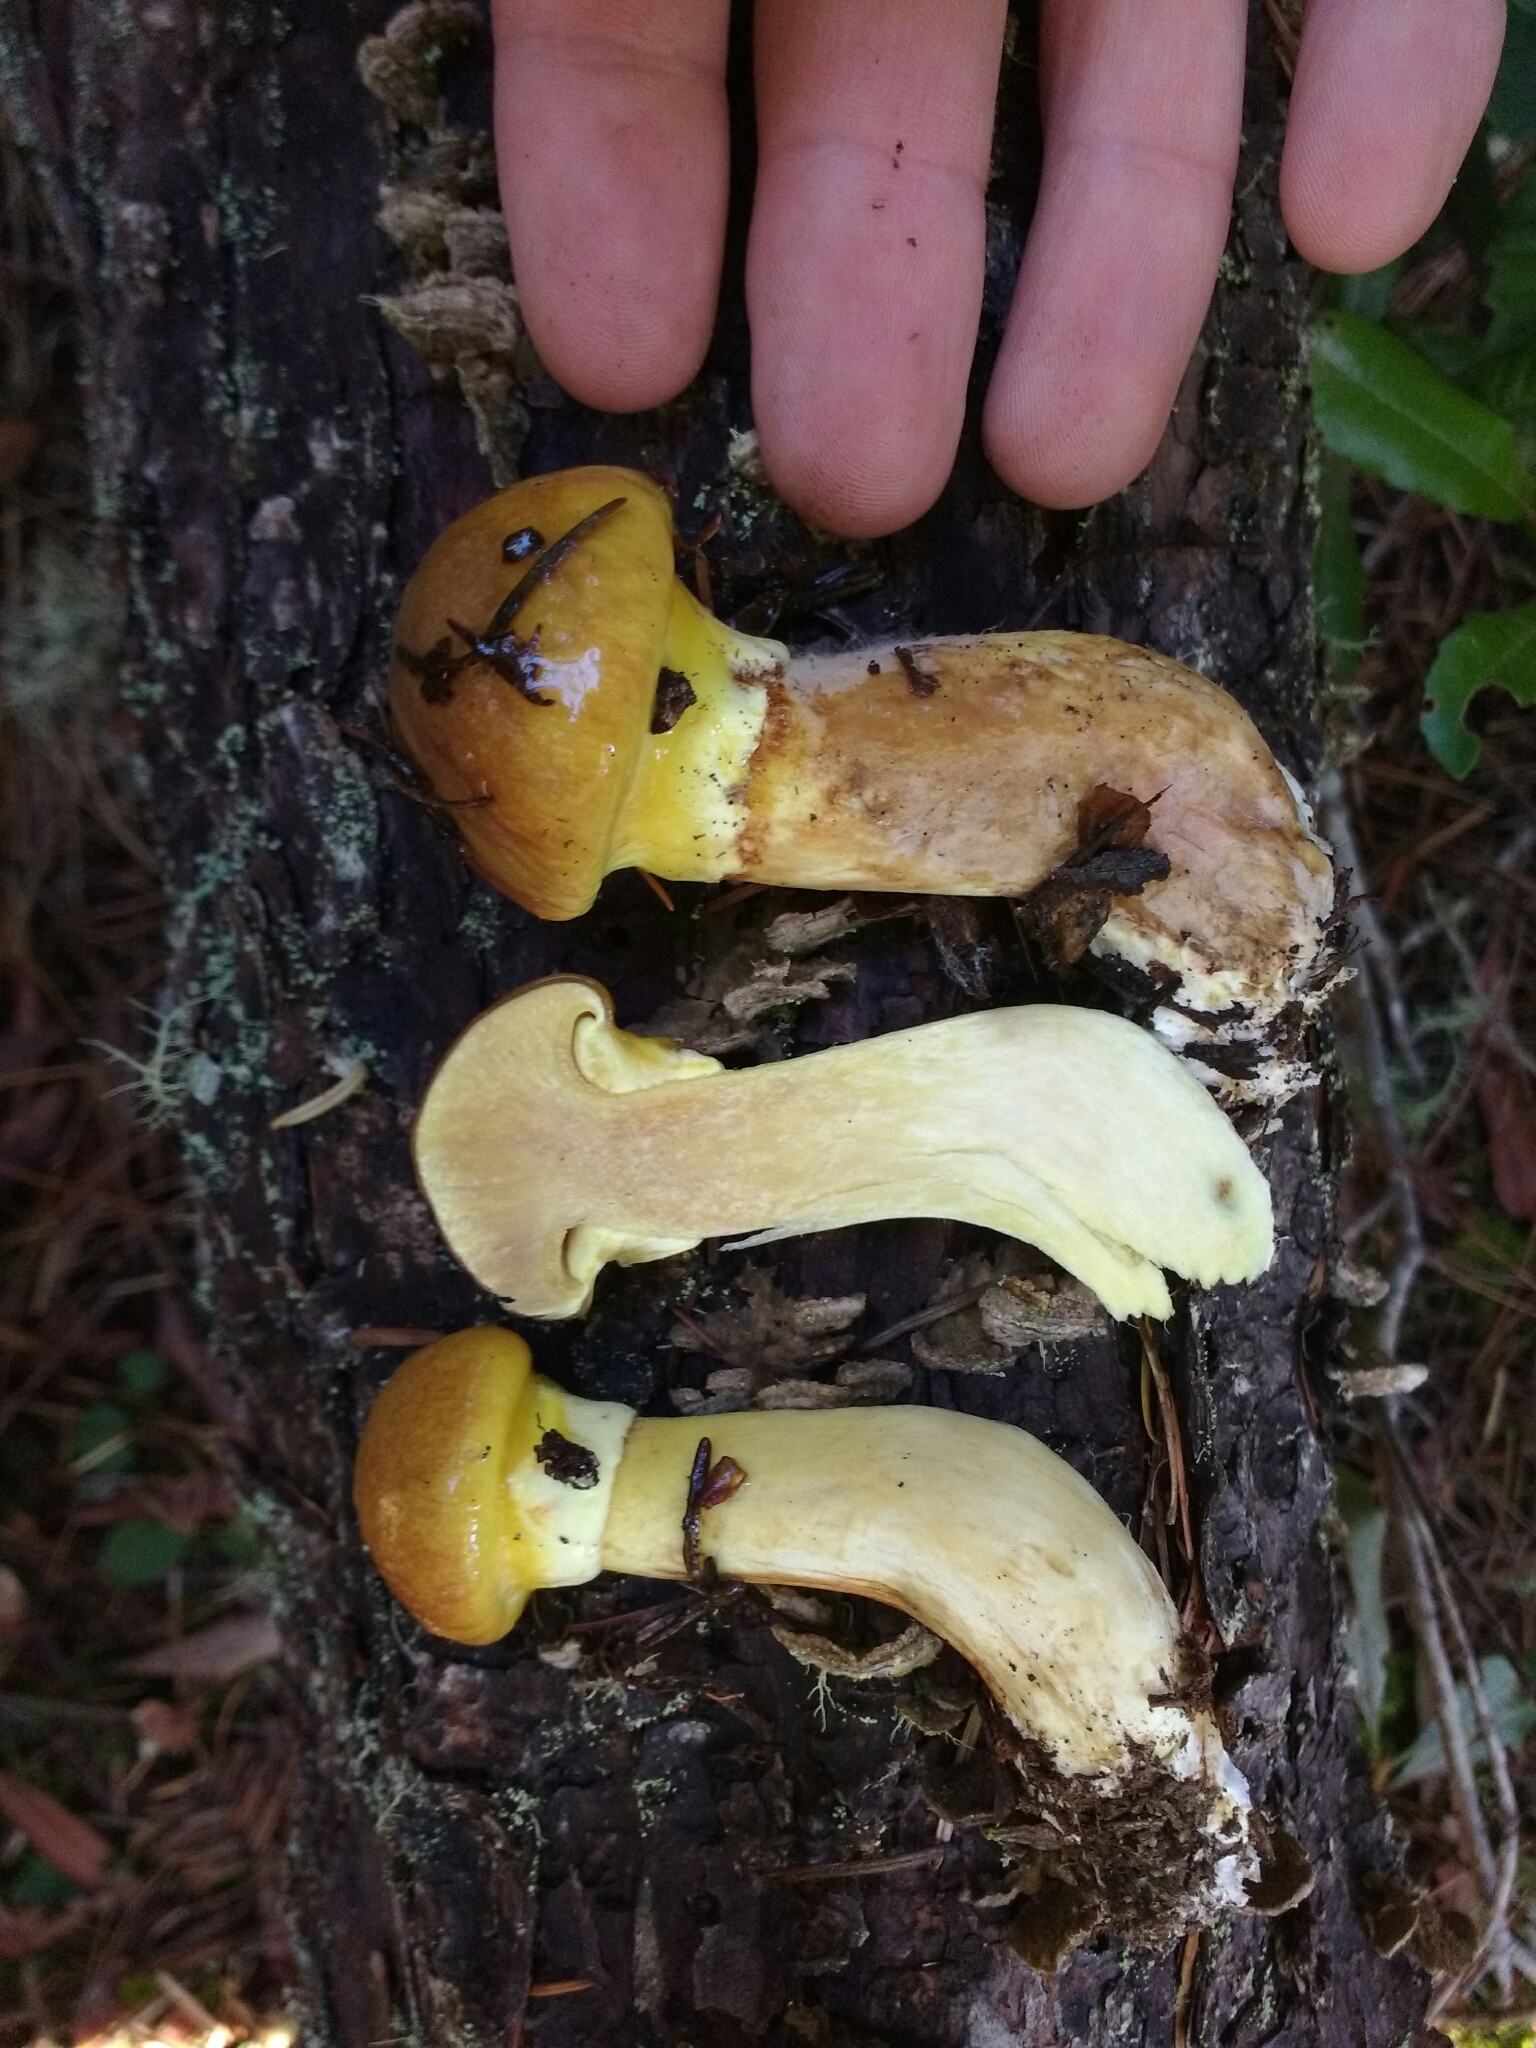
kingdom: Fungi
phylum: Basidiomycota
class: Agaricomycetes
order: Boletales
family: Suillaceae
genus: Suillus
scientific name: Suillus ponderosus
